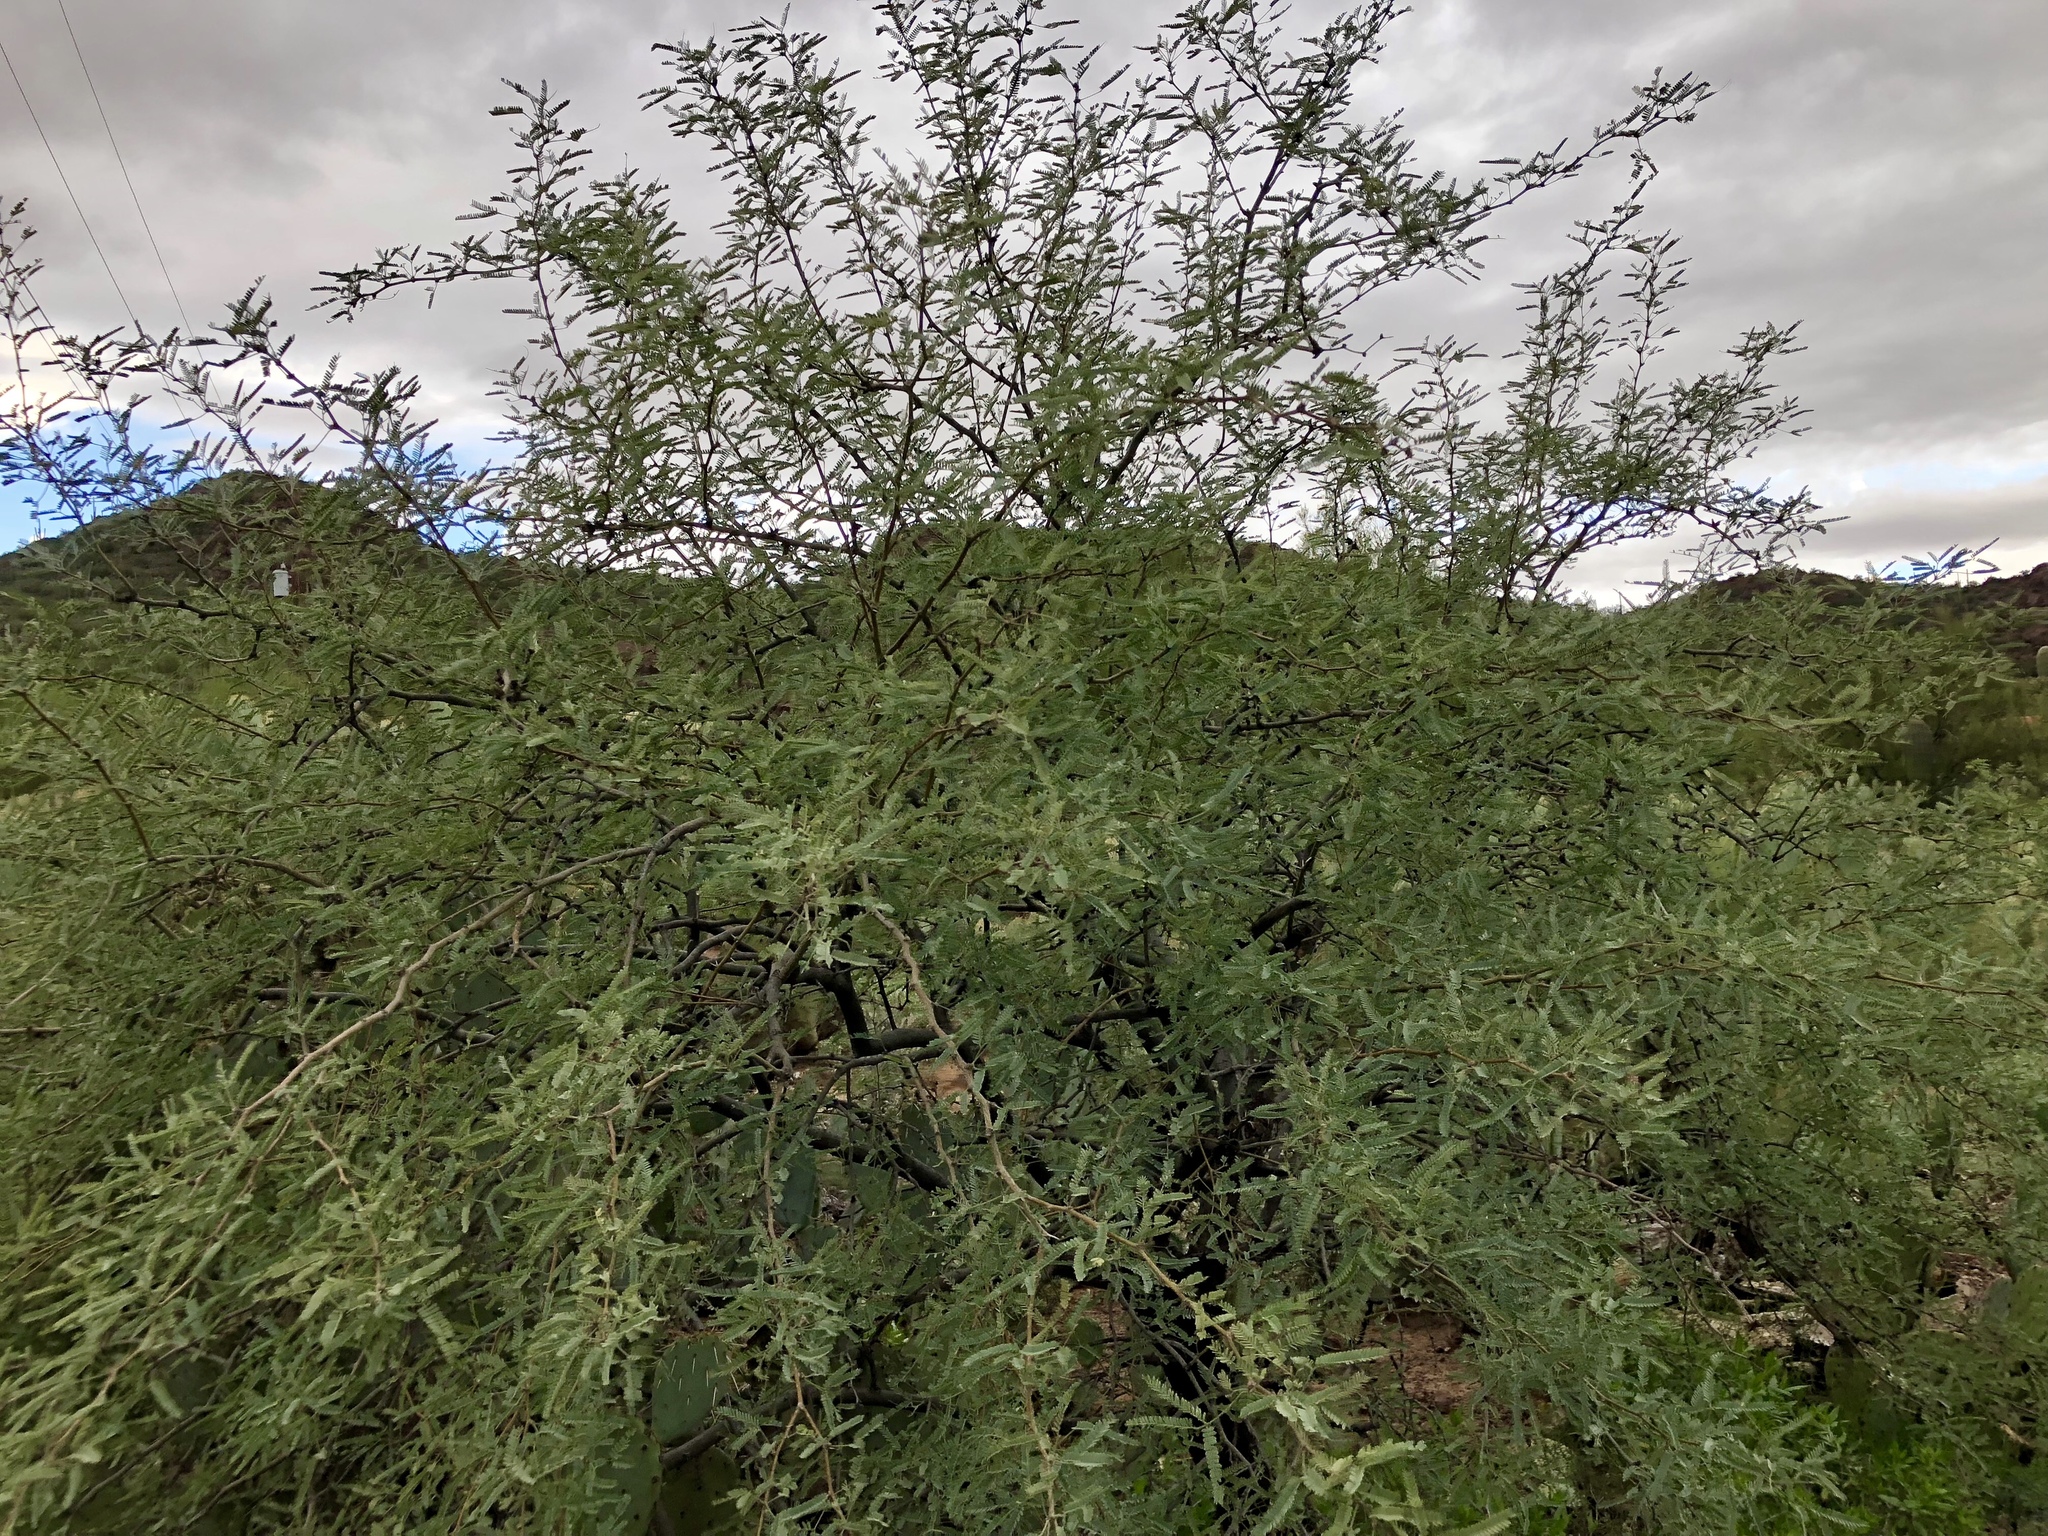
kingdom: Plantae
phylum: Tracheophyta
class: Magnoliopsida
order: Fabales
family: Fabaceae
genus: Prosopis
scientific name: Prosopis velutina
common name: Velvet mesquite
